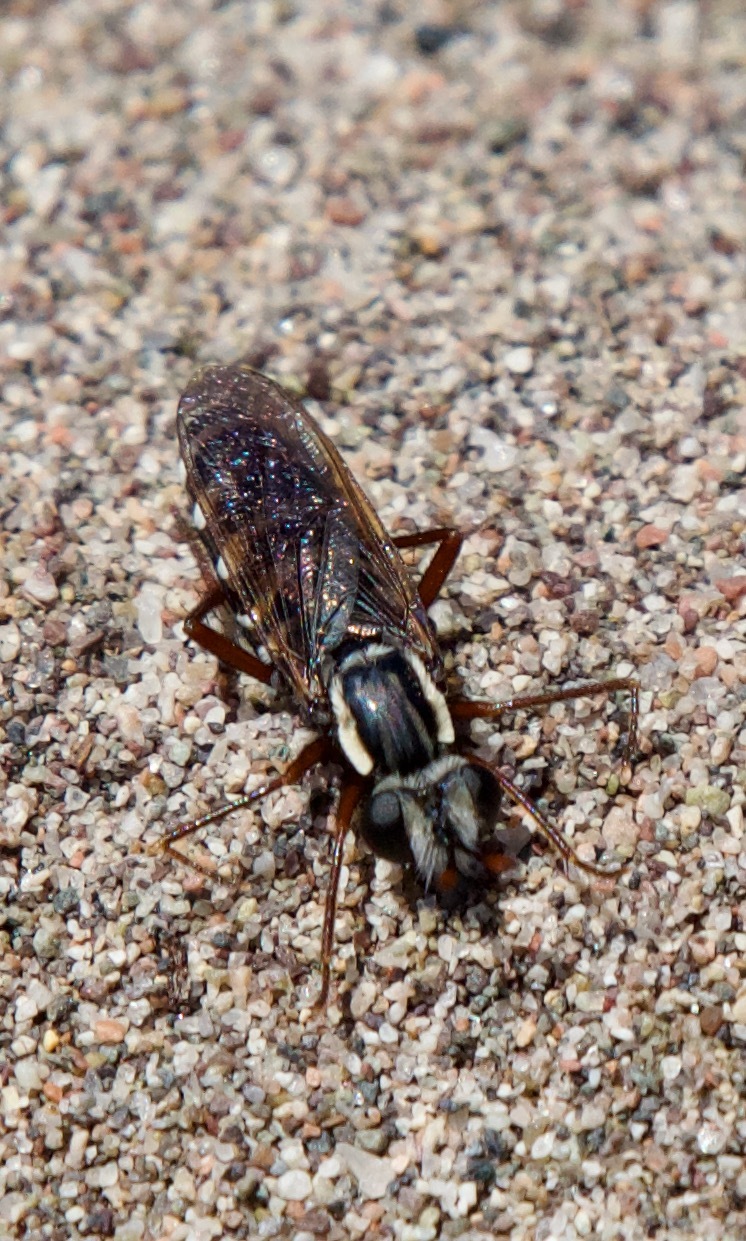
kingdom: Animalia
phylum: Arthropoda
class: Insecta
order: Diptera
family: Mydidae
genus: Mitrodetus
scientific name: Mitrodetus dentitarsis
